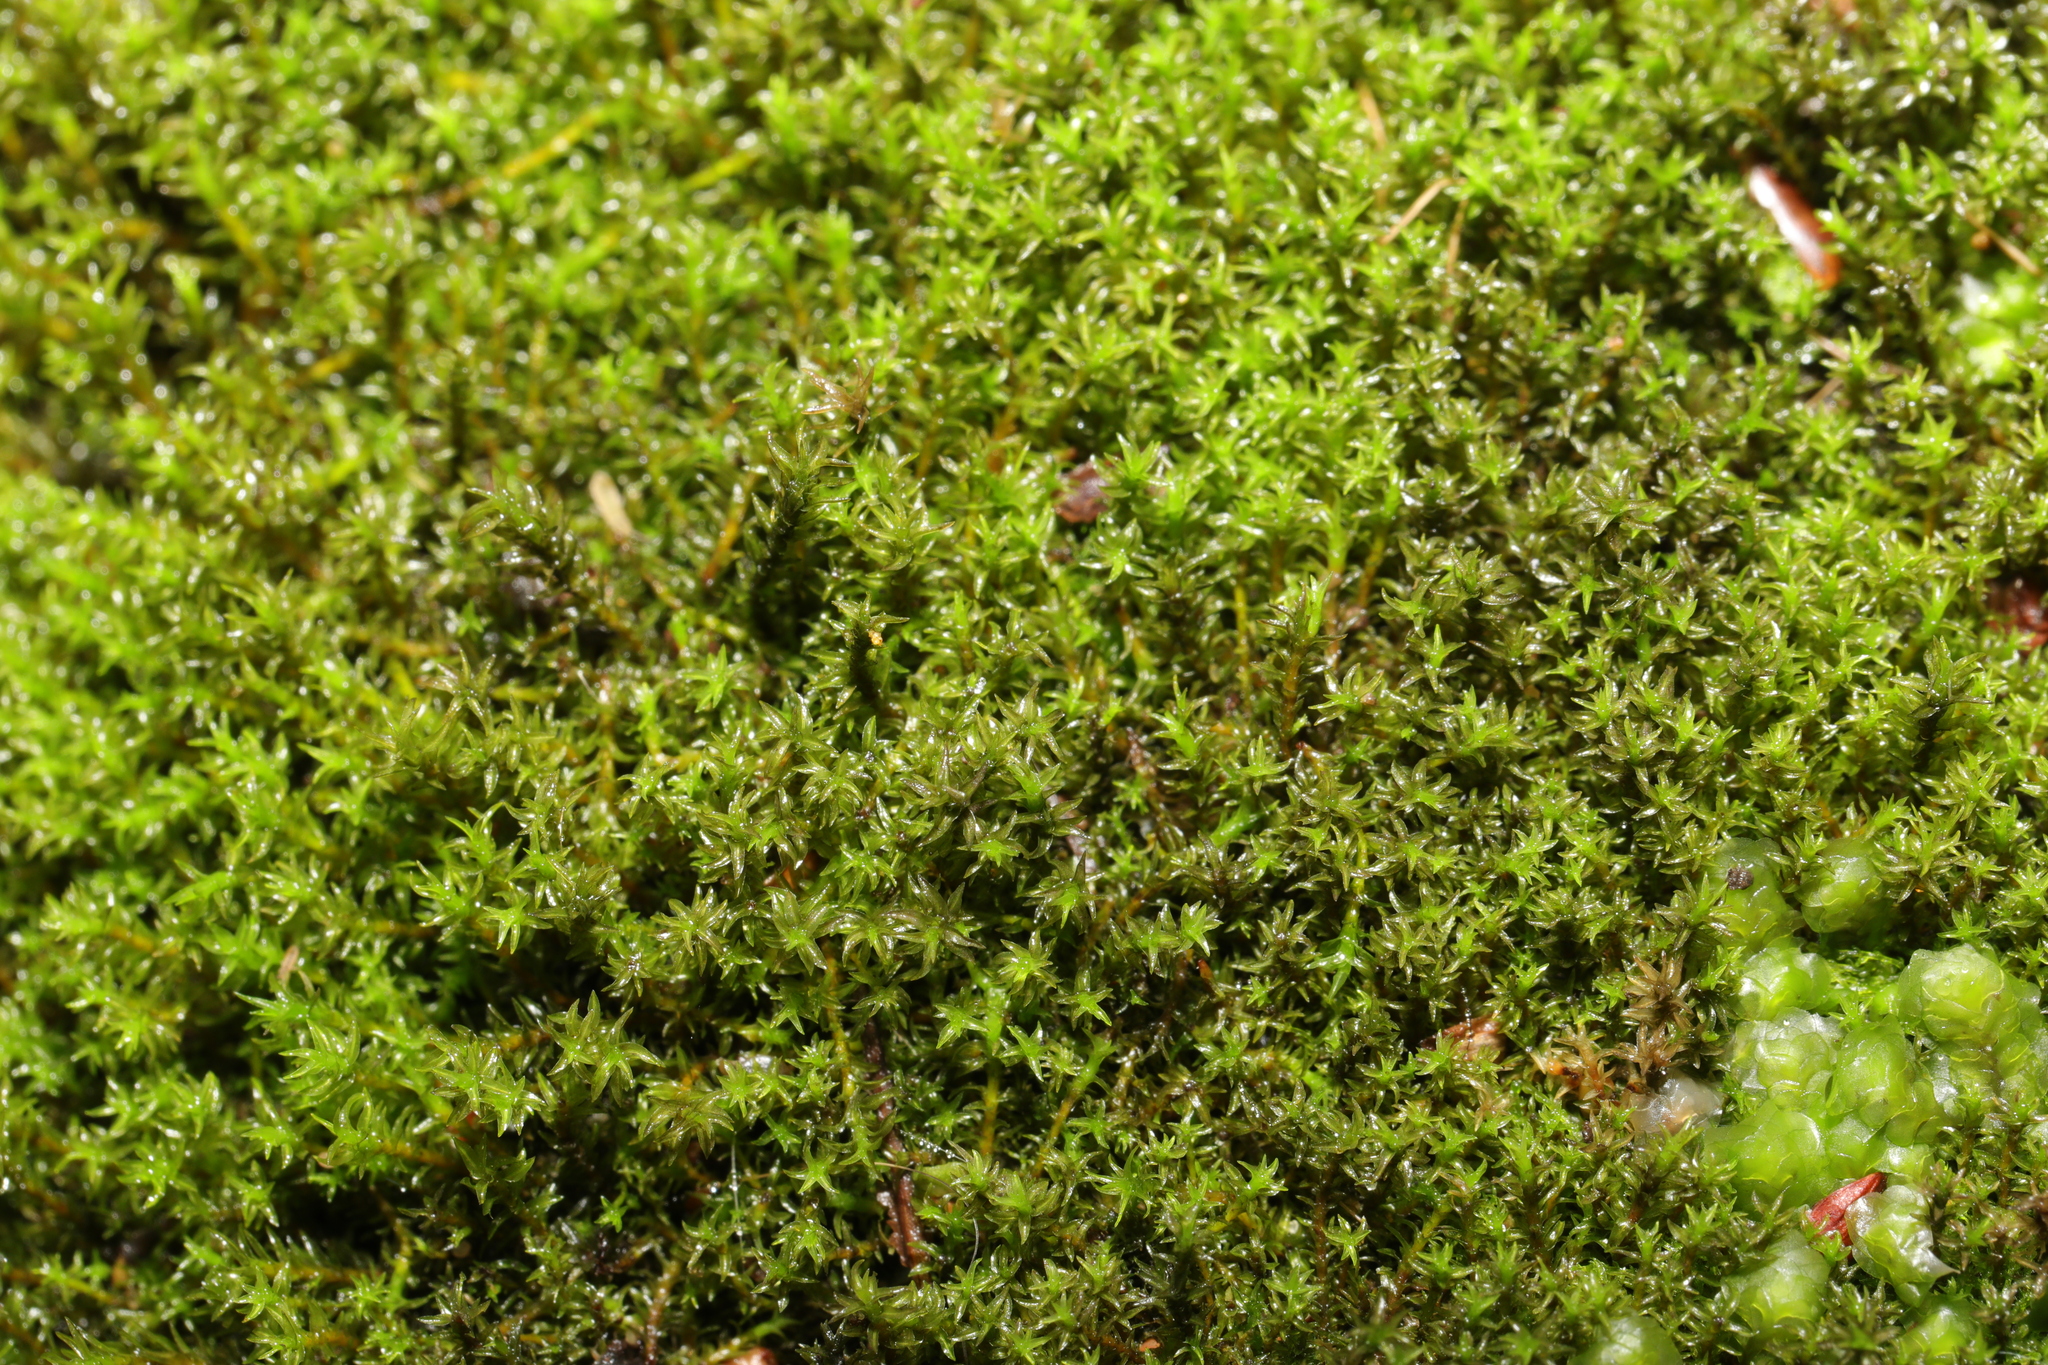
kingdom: Plantae
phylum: Bryophyta
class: Bryopsida
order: Dicranales
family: Aongstroemiaceae
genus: Dichodontium
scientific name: Dichodontium pellucidum
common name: Transparent fork moss
